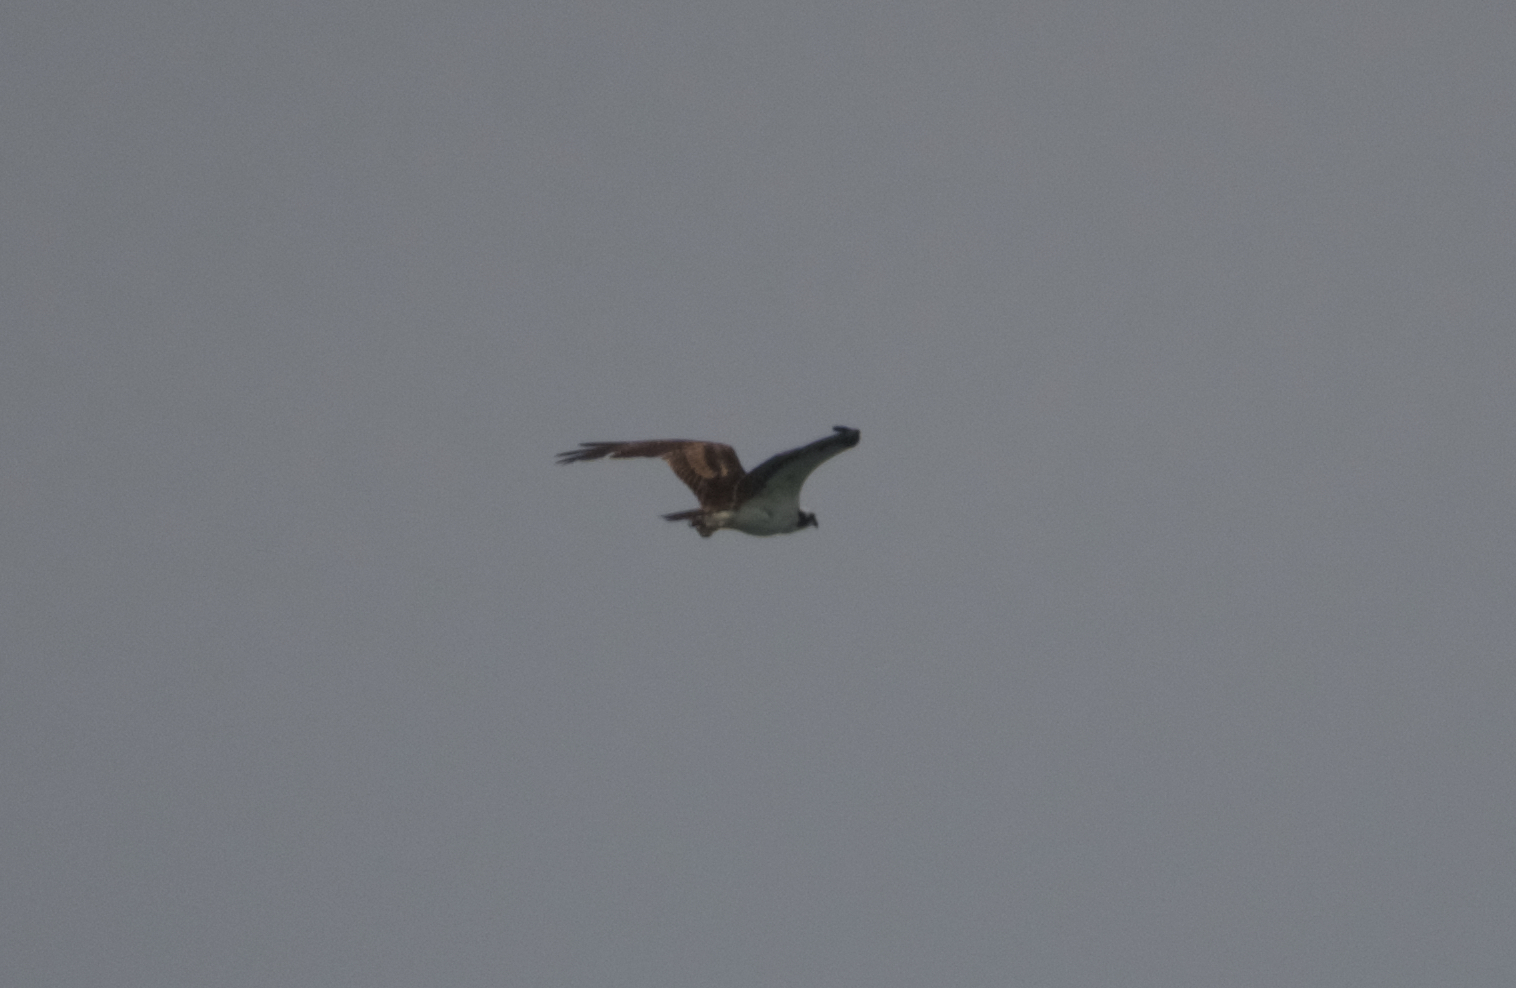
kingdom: Animalia
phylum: Chordata
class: Aves
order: Accipitriformes
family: Pandionidae
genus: Pandion
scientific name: Pandion haliaetus
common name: Osprey
